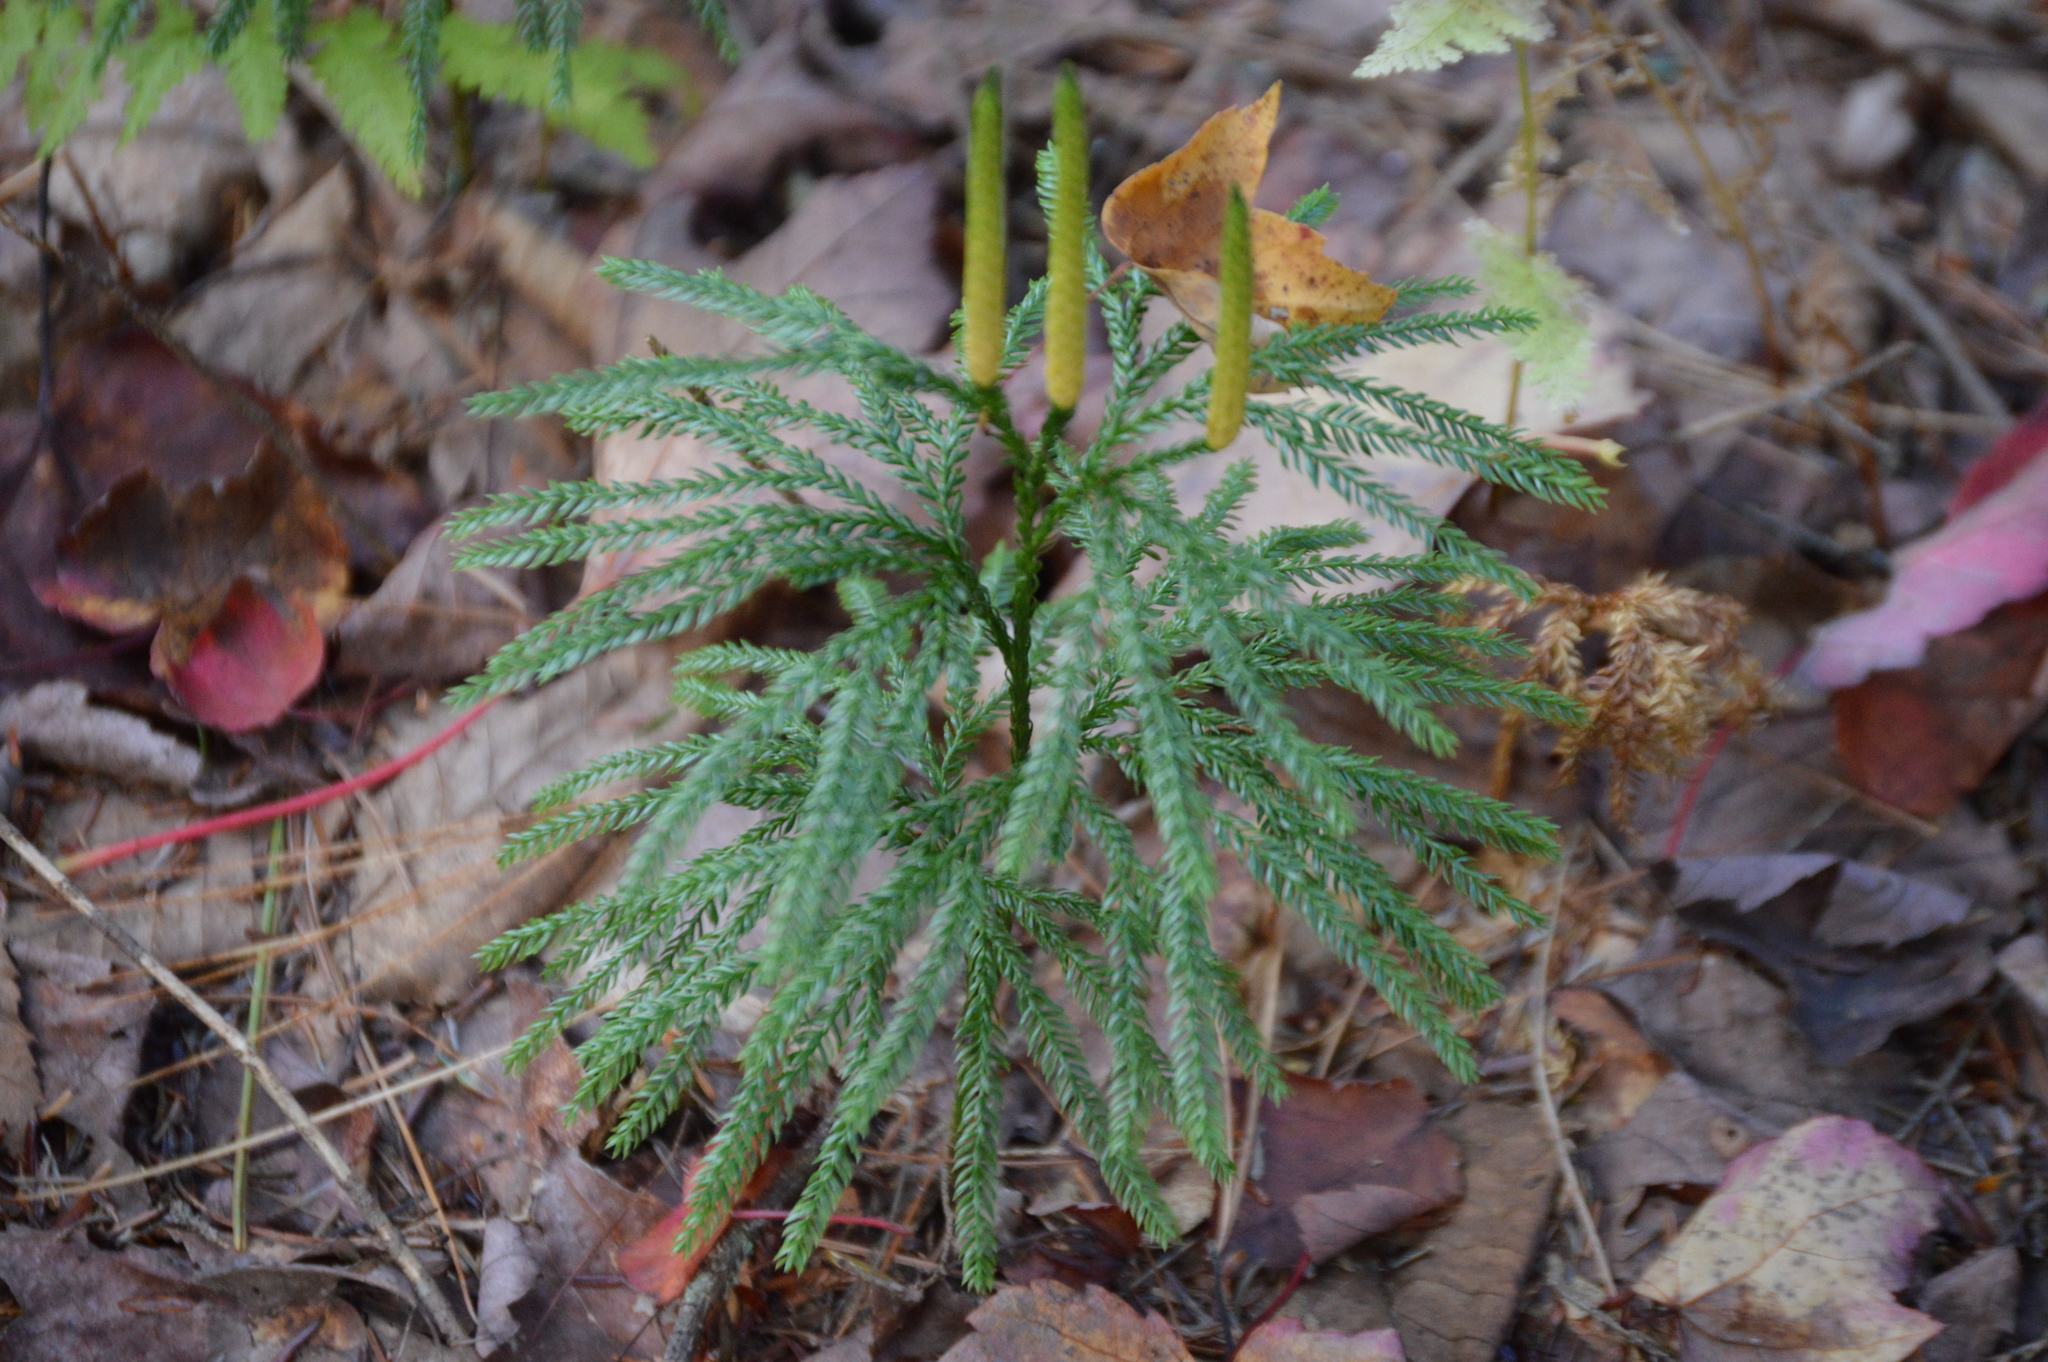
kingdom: Plantae
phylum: Tracheophyta
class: Lycopodiopsida
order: Lycopodiales
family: Lycopodiaceae
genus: Dendrolycopodium
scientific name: Dendrolycopodium obscurum
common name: Common ground-pine
